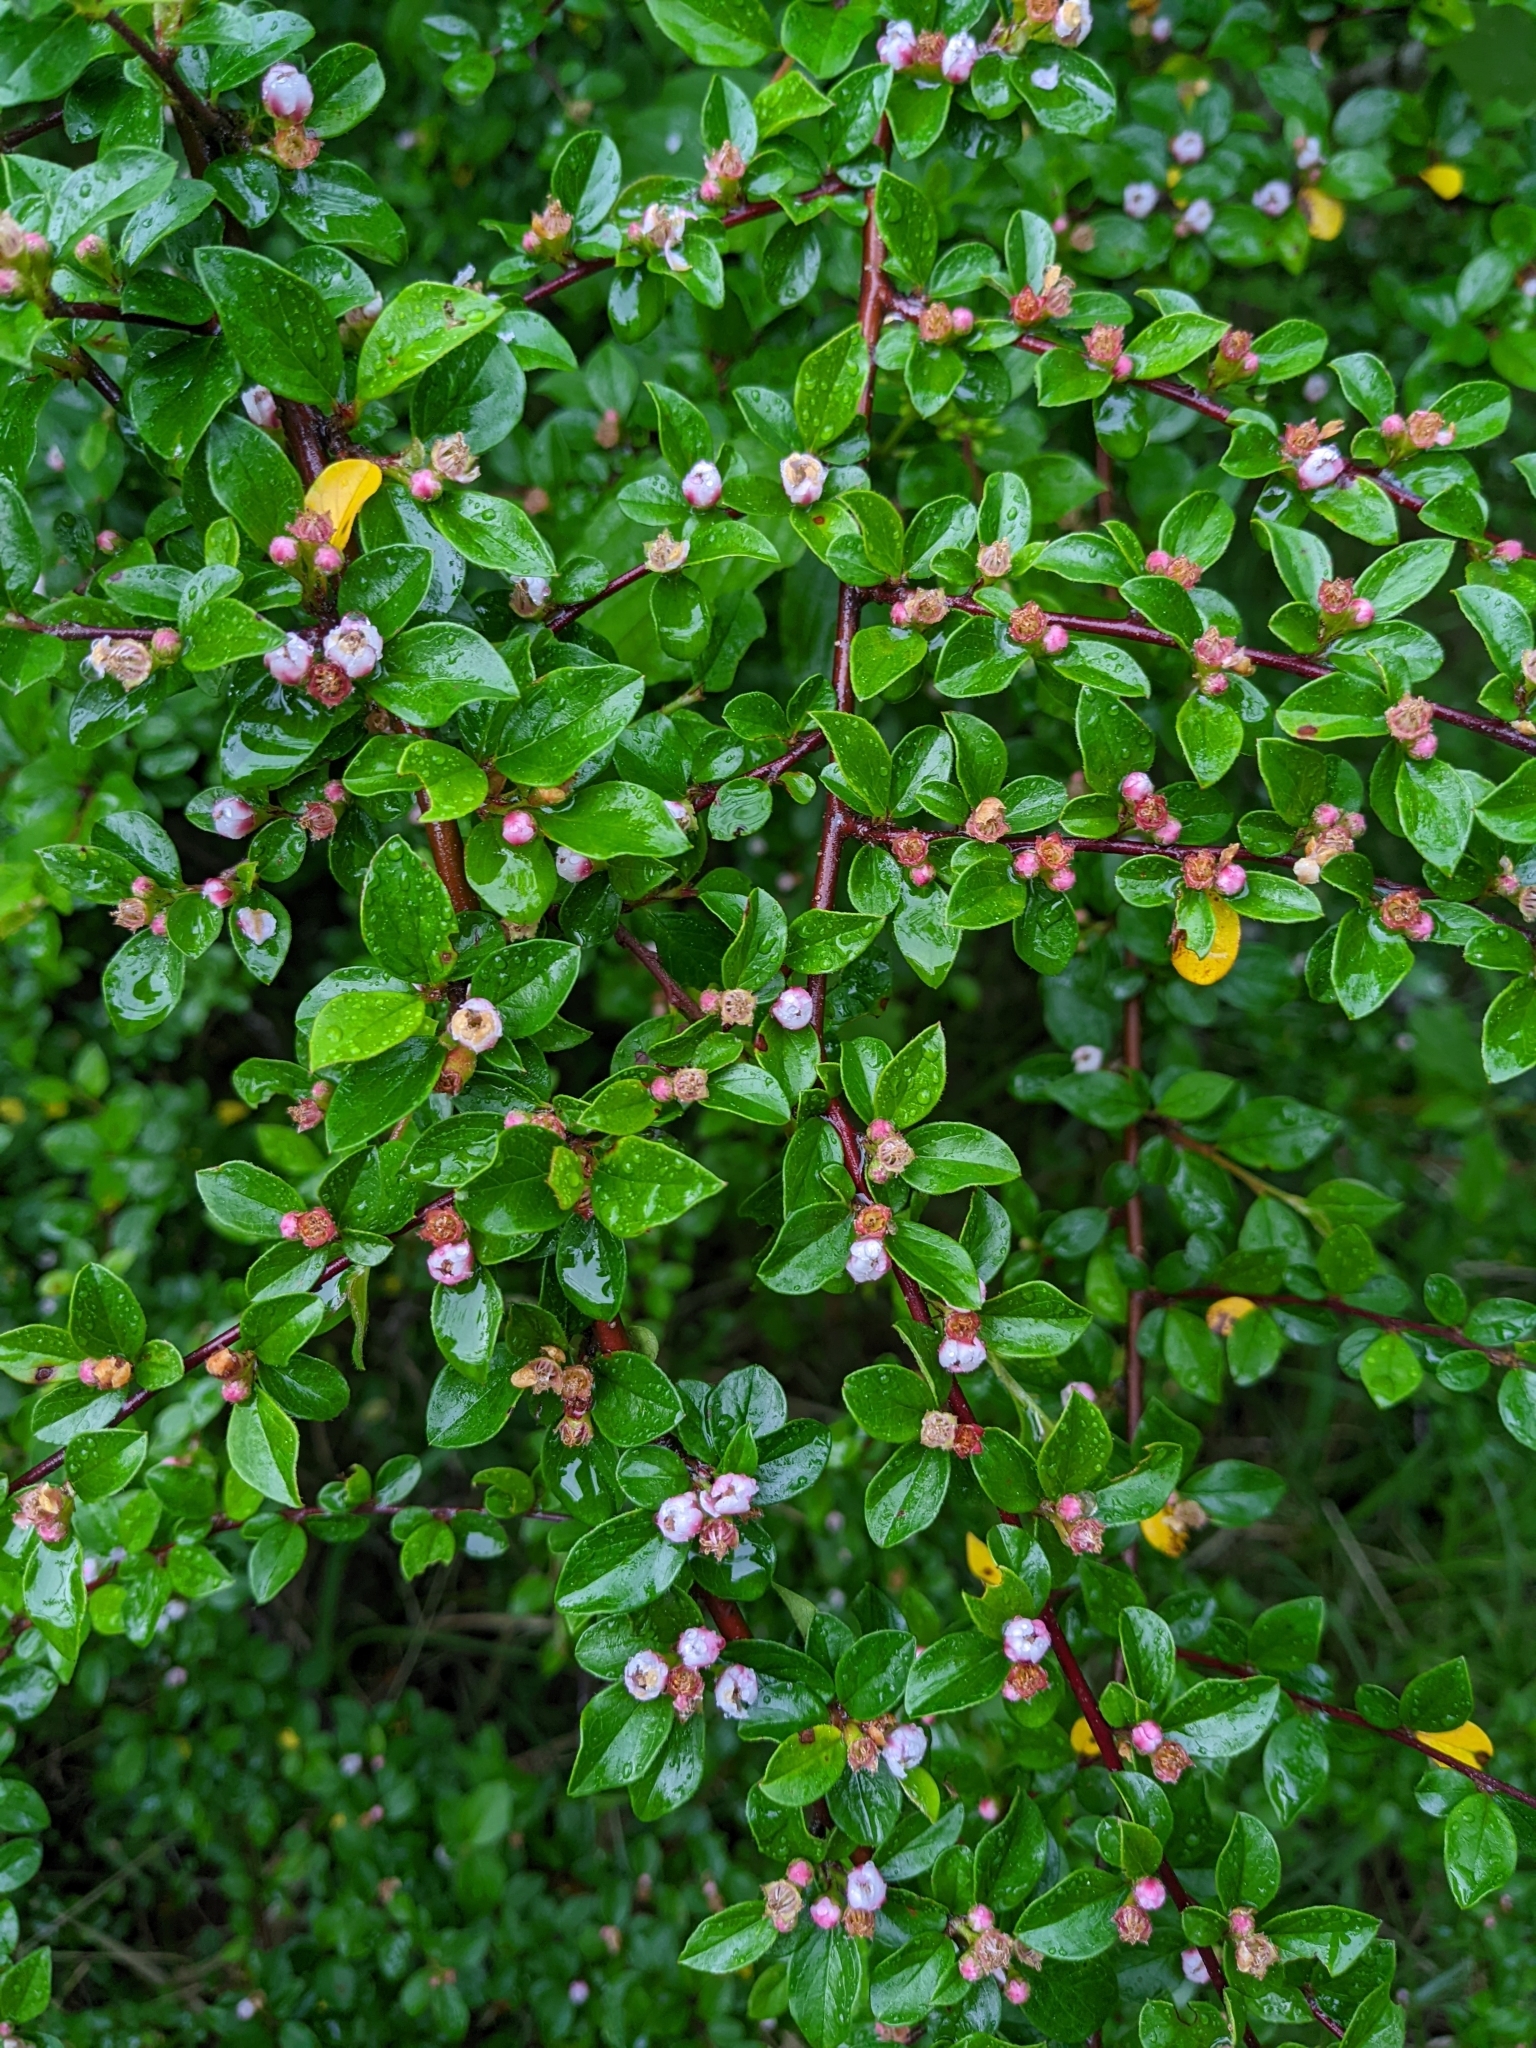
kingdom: Plantae
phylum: Tracheophyta
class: Magnoliopsida
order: Rosales
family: Rosaceae
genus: Cotoneaster
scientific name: Cotoneaster divaricatus
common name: Spreading cotoneaster
